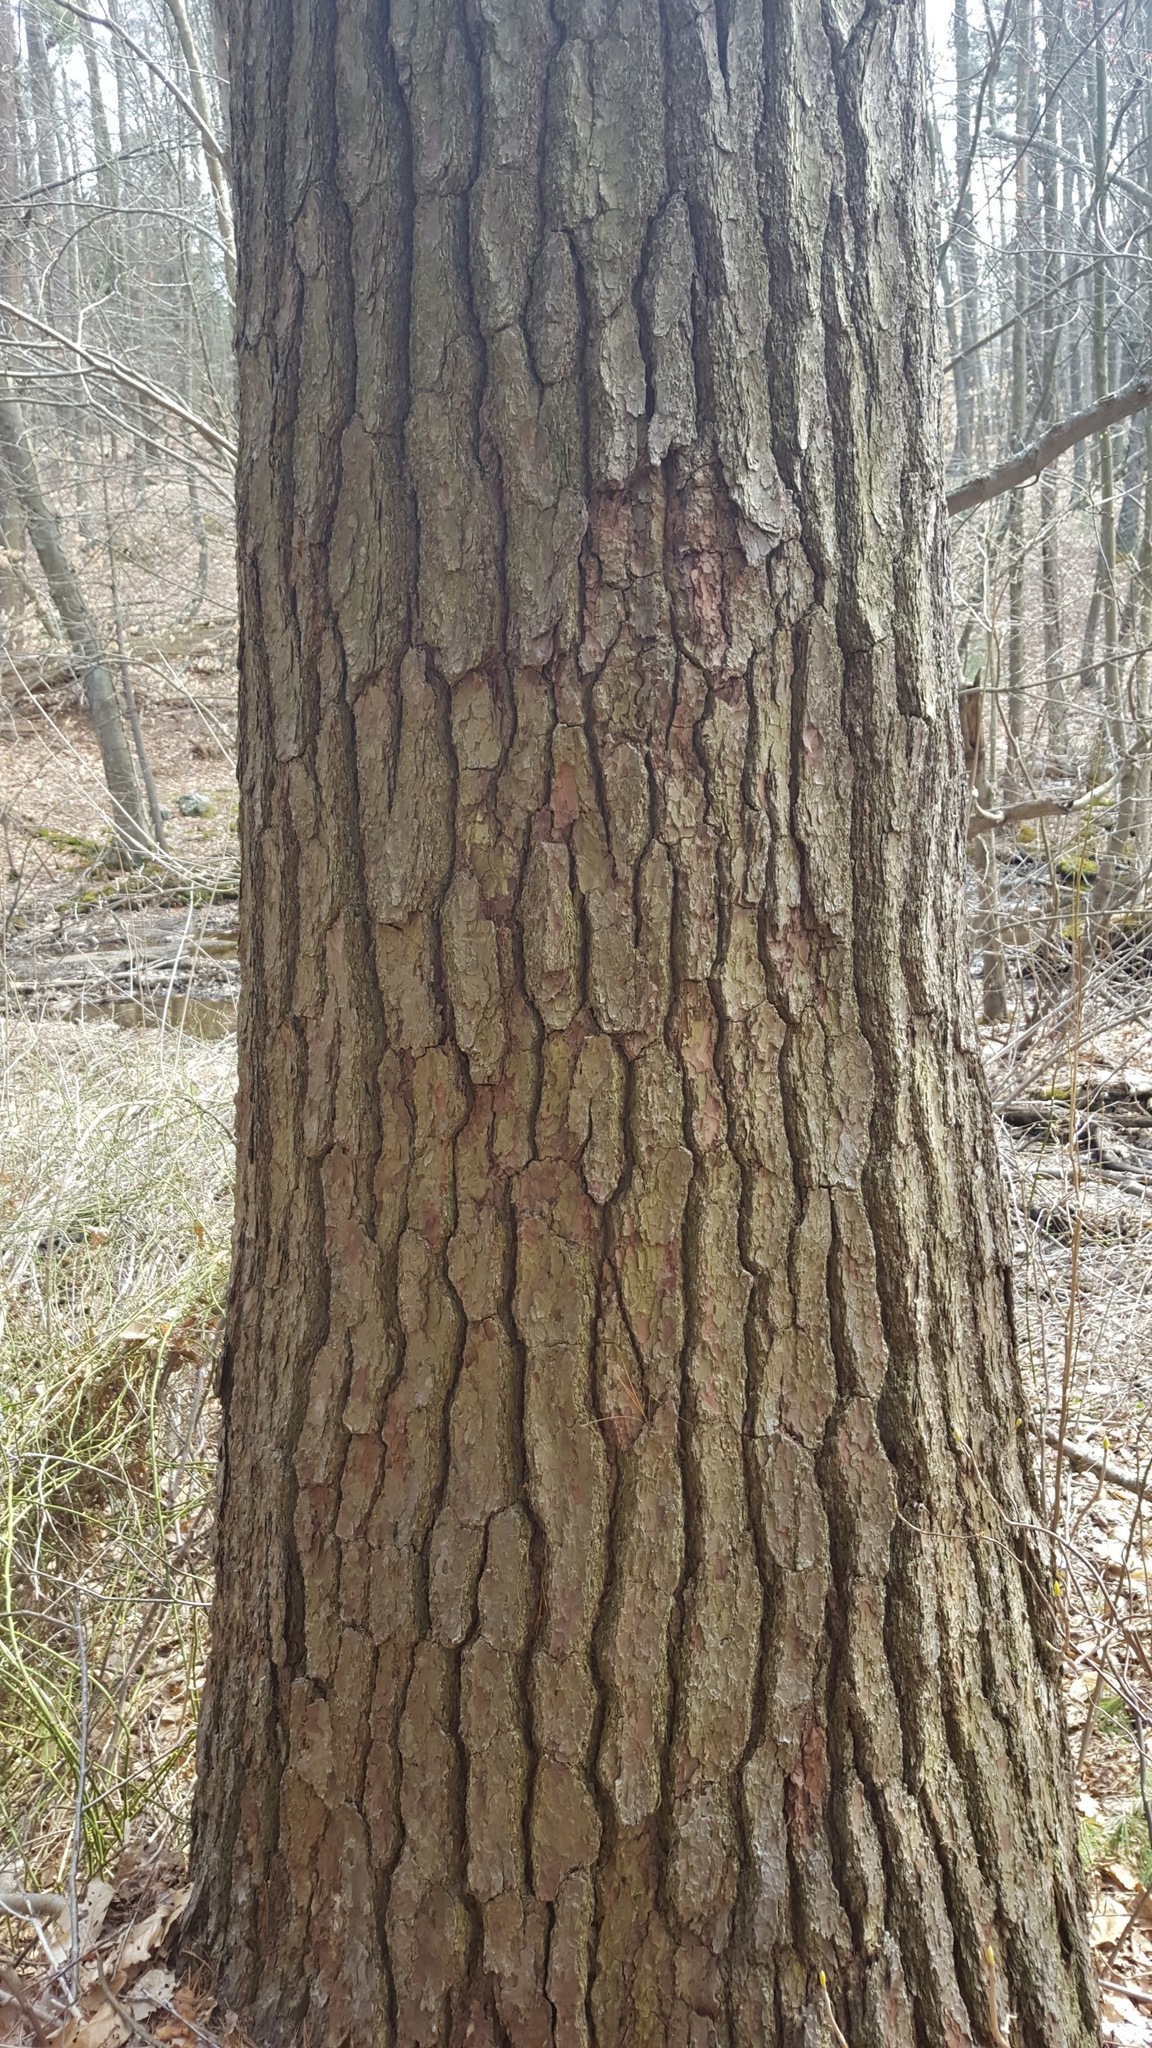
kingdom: Plantae
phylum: Tracheophyta
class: Pinopsida
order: Pinales
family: Pinaceae
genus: Pinus
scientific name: Pinus strobus
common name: Weymouth pine
